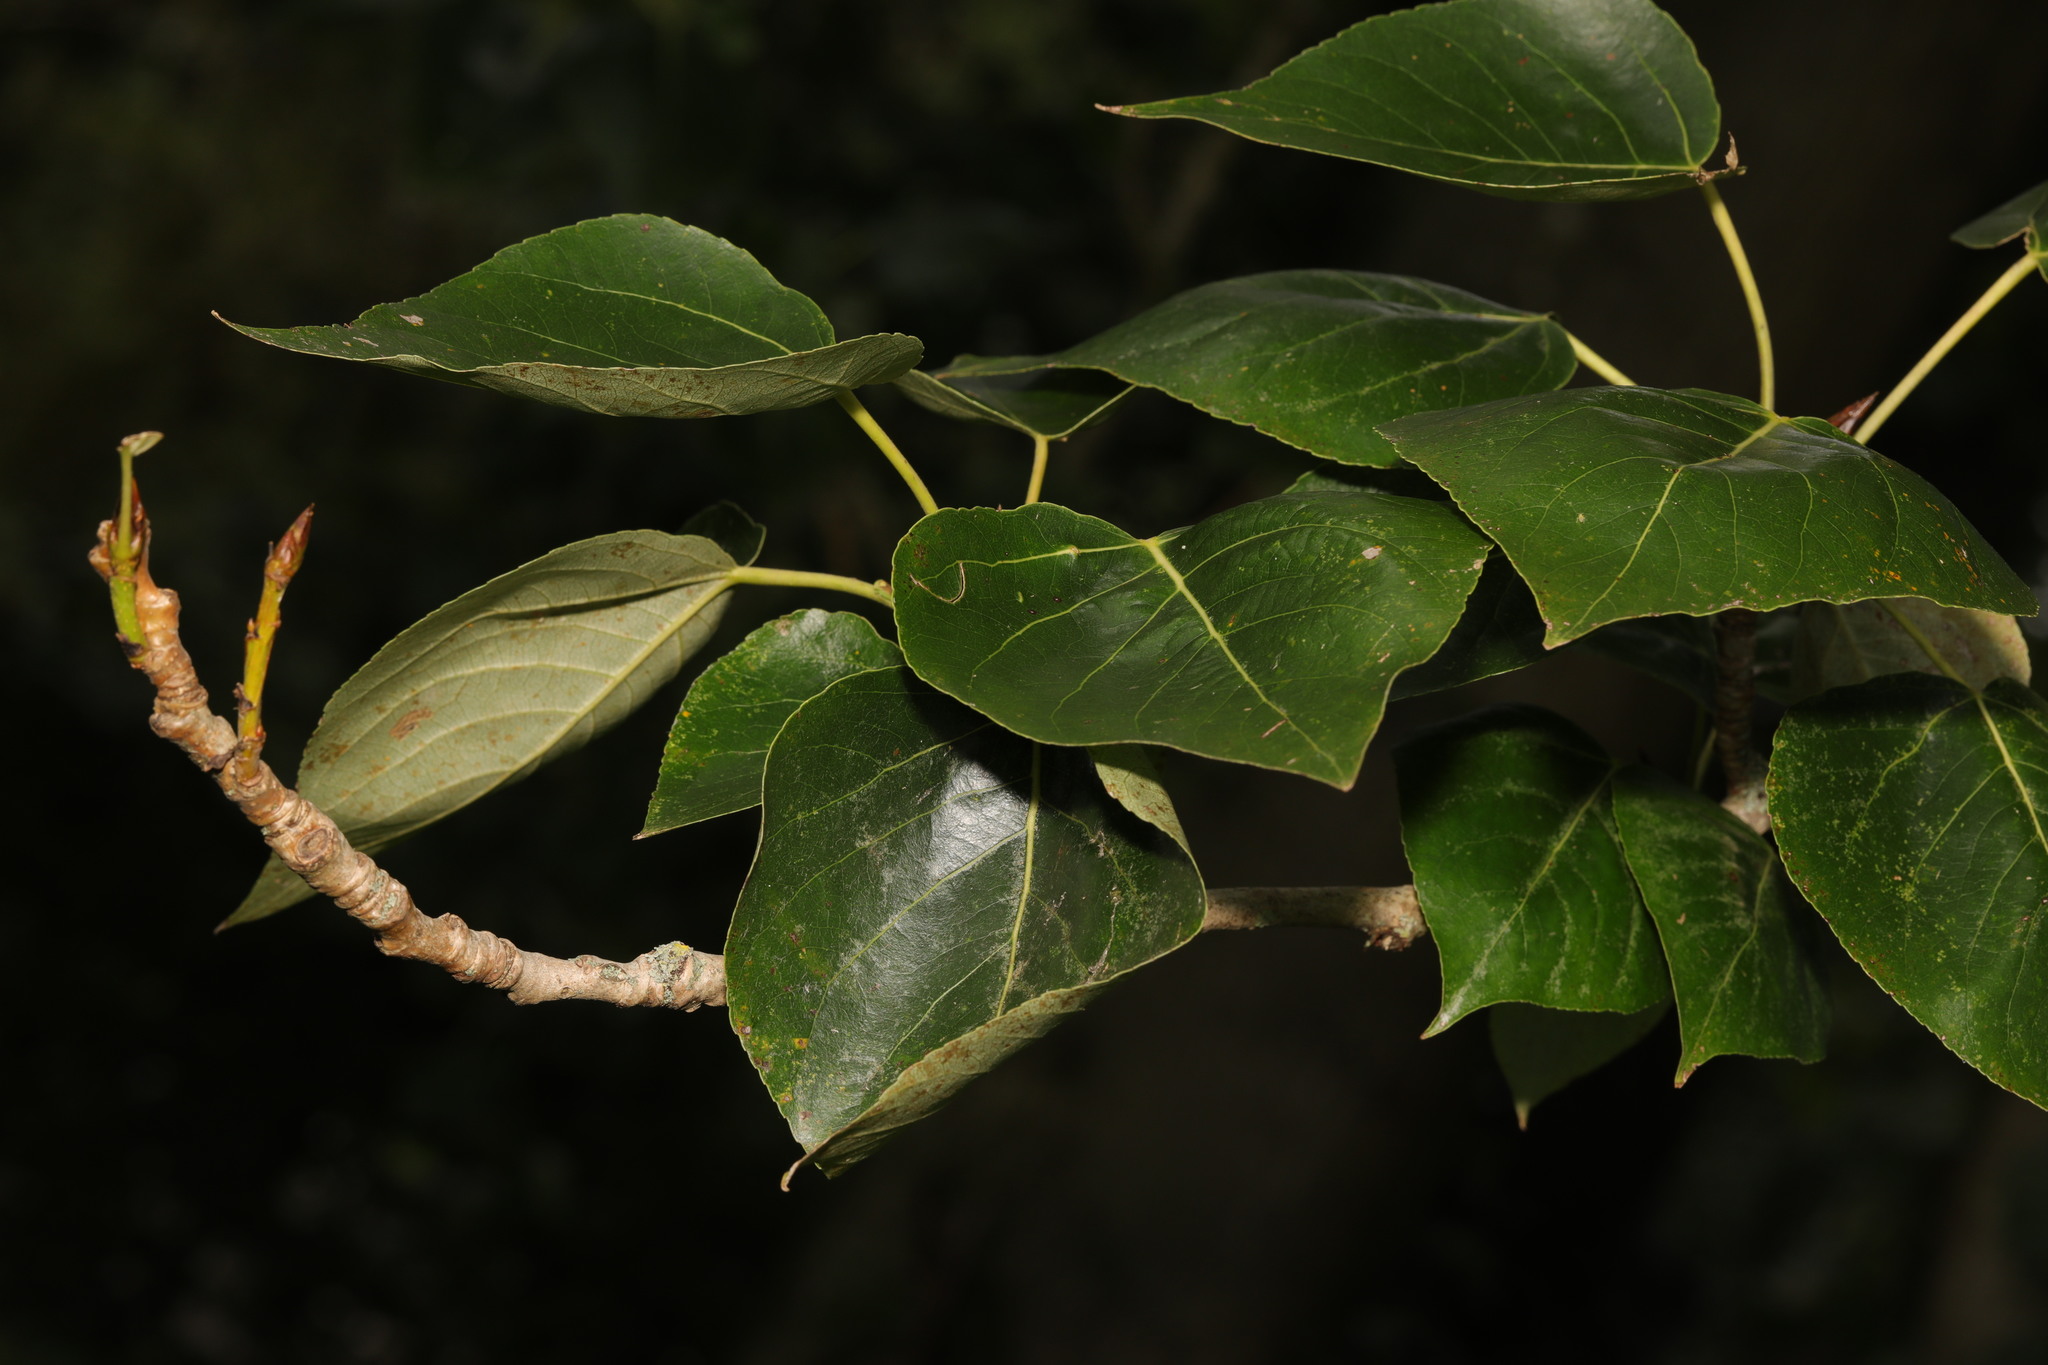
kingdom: Plantae
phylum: Tracheophyta
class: Magnoliopsida
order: Malpighiales
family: Salicaceae
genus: Populus
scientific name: Populus hastata
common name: Black cottonwood
